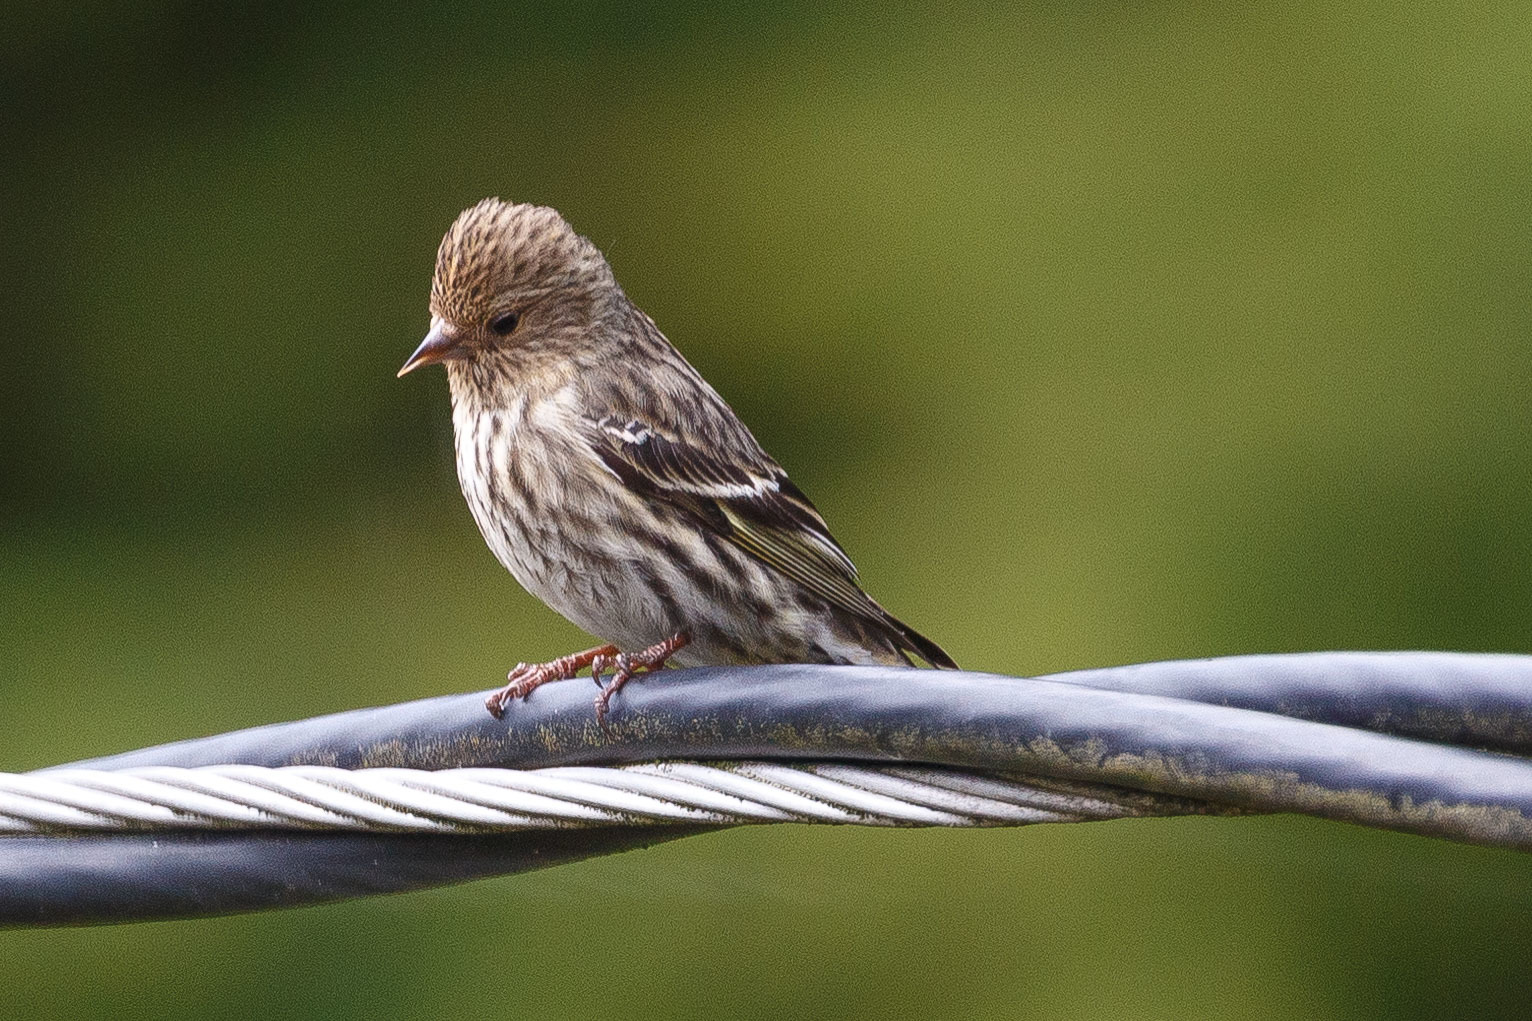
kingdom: Animalia
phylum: Chordata
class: Aves
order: Passeriformes
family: Fringillidae
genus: Spinus
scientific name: Spinus pinus
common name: Pine siskin
